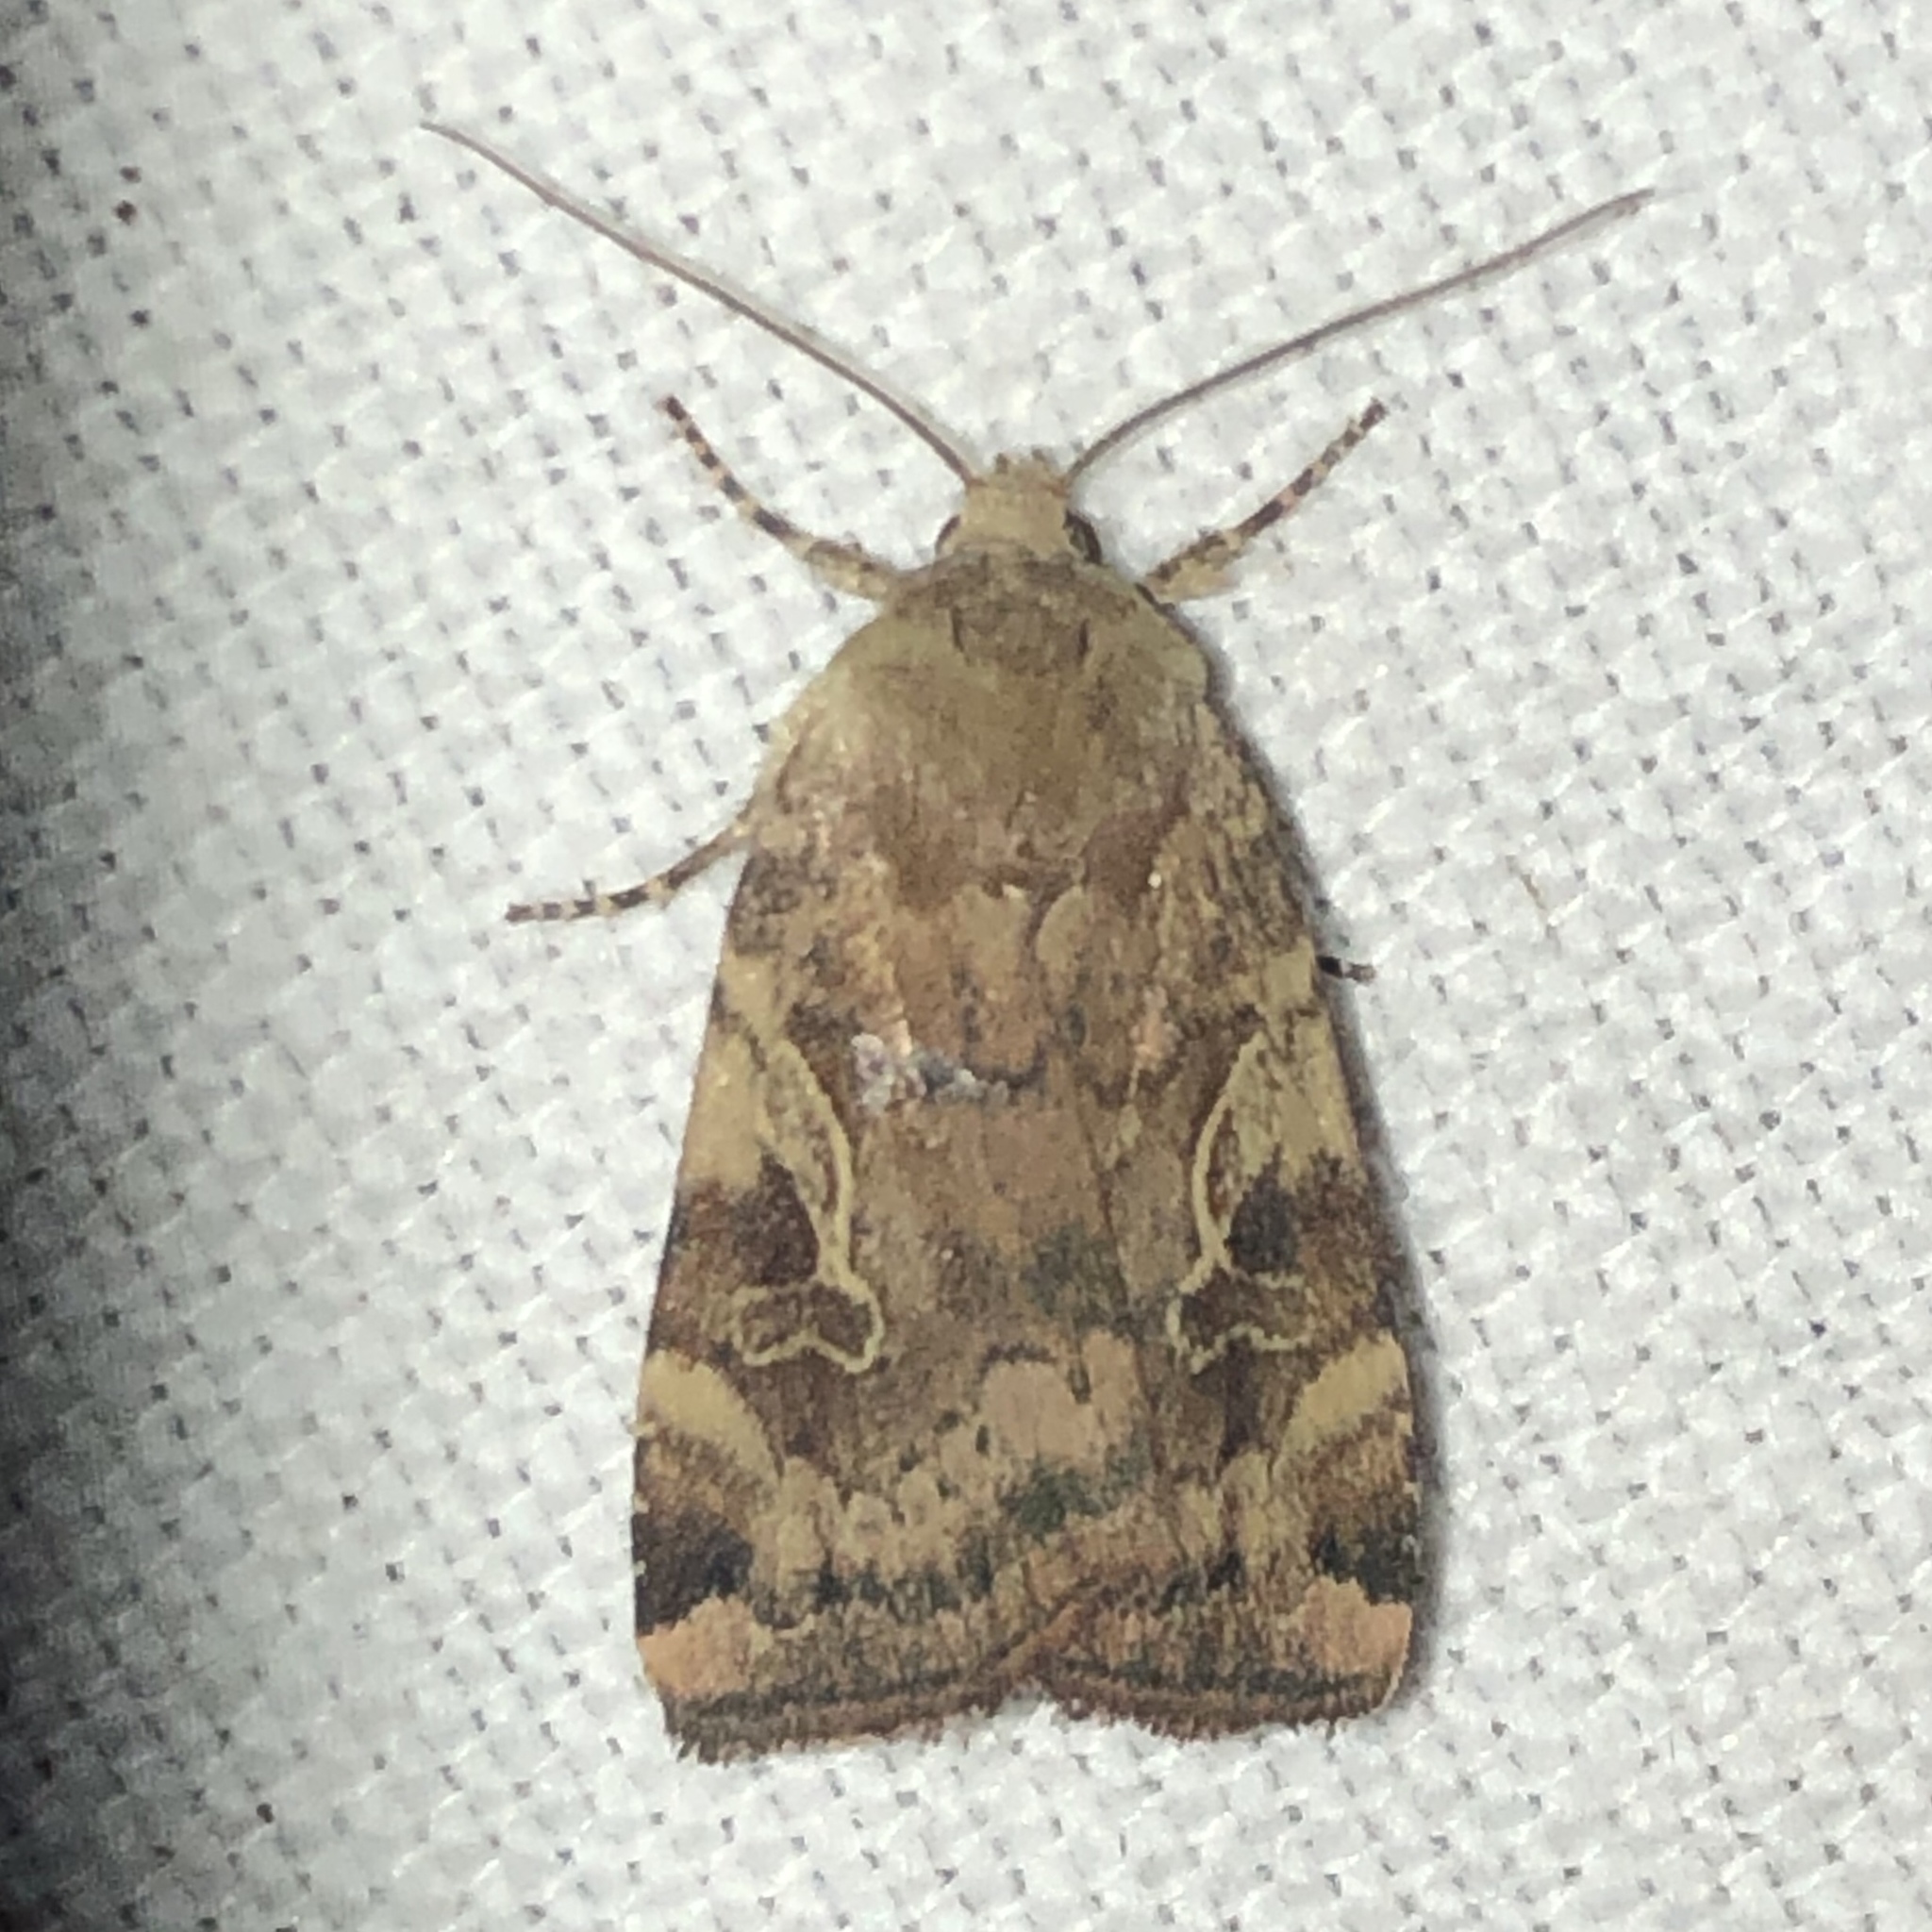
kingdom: Animalia
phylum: Arthropoda
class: Insecta
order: Lepidoptera
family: Noctuidae
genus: Cryptocala
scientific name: Cryptocala acadiensis
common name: Catocaline dart
